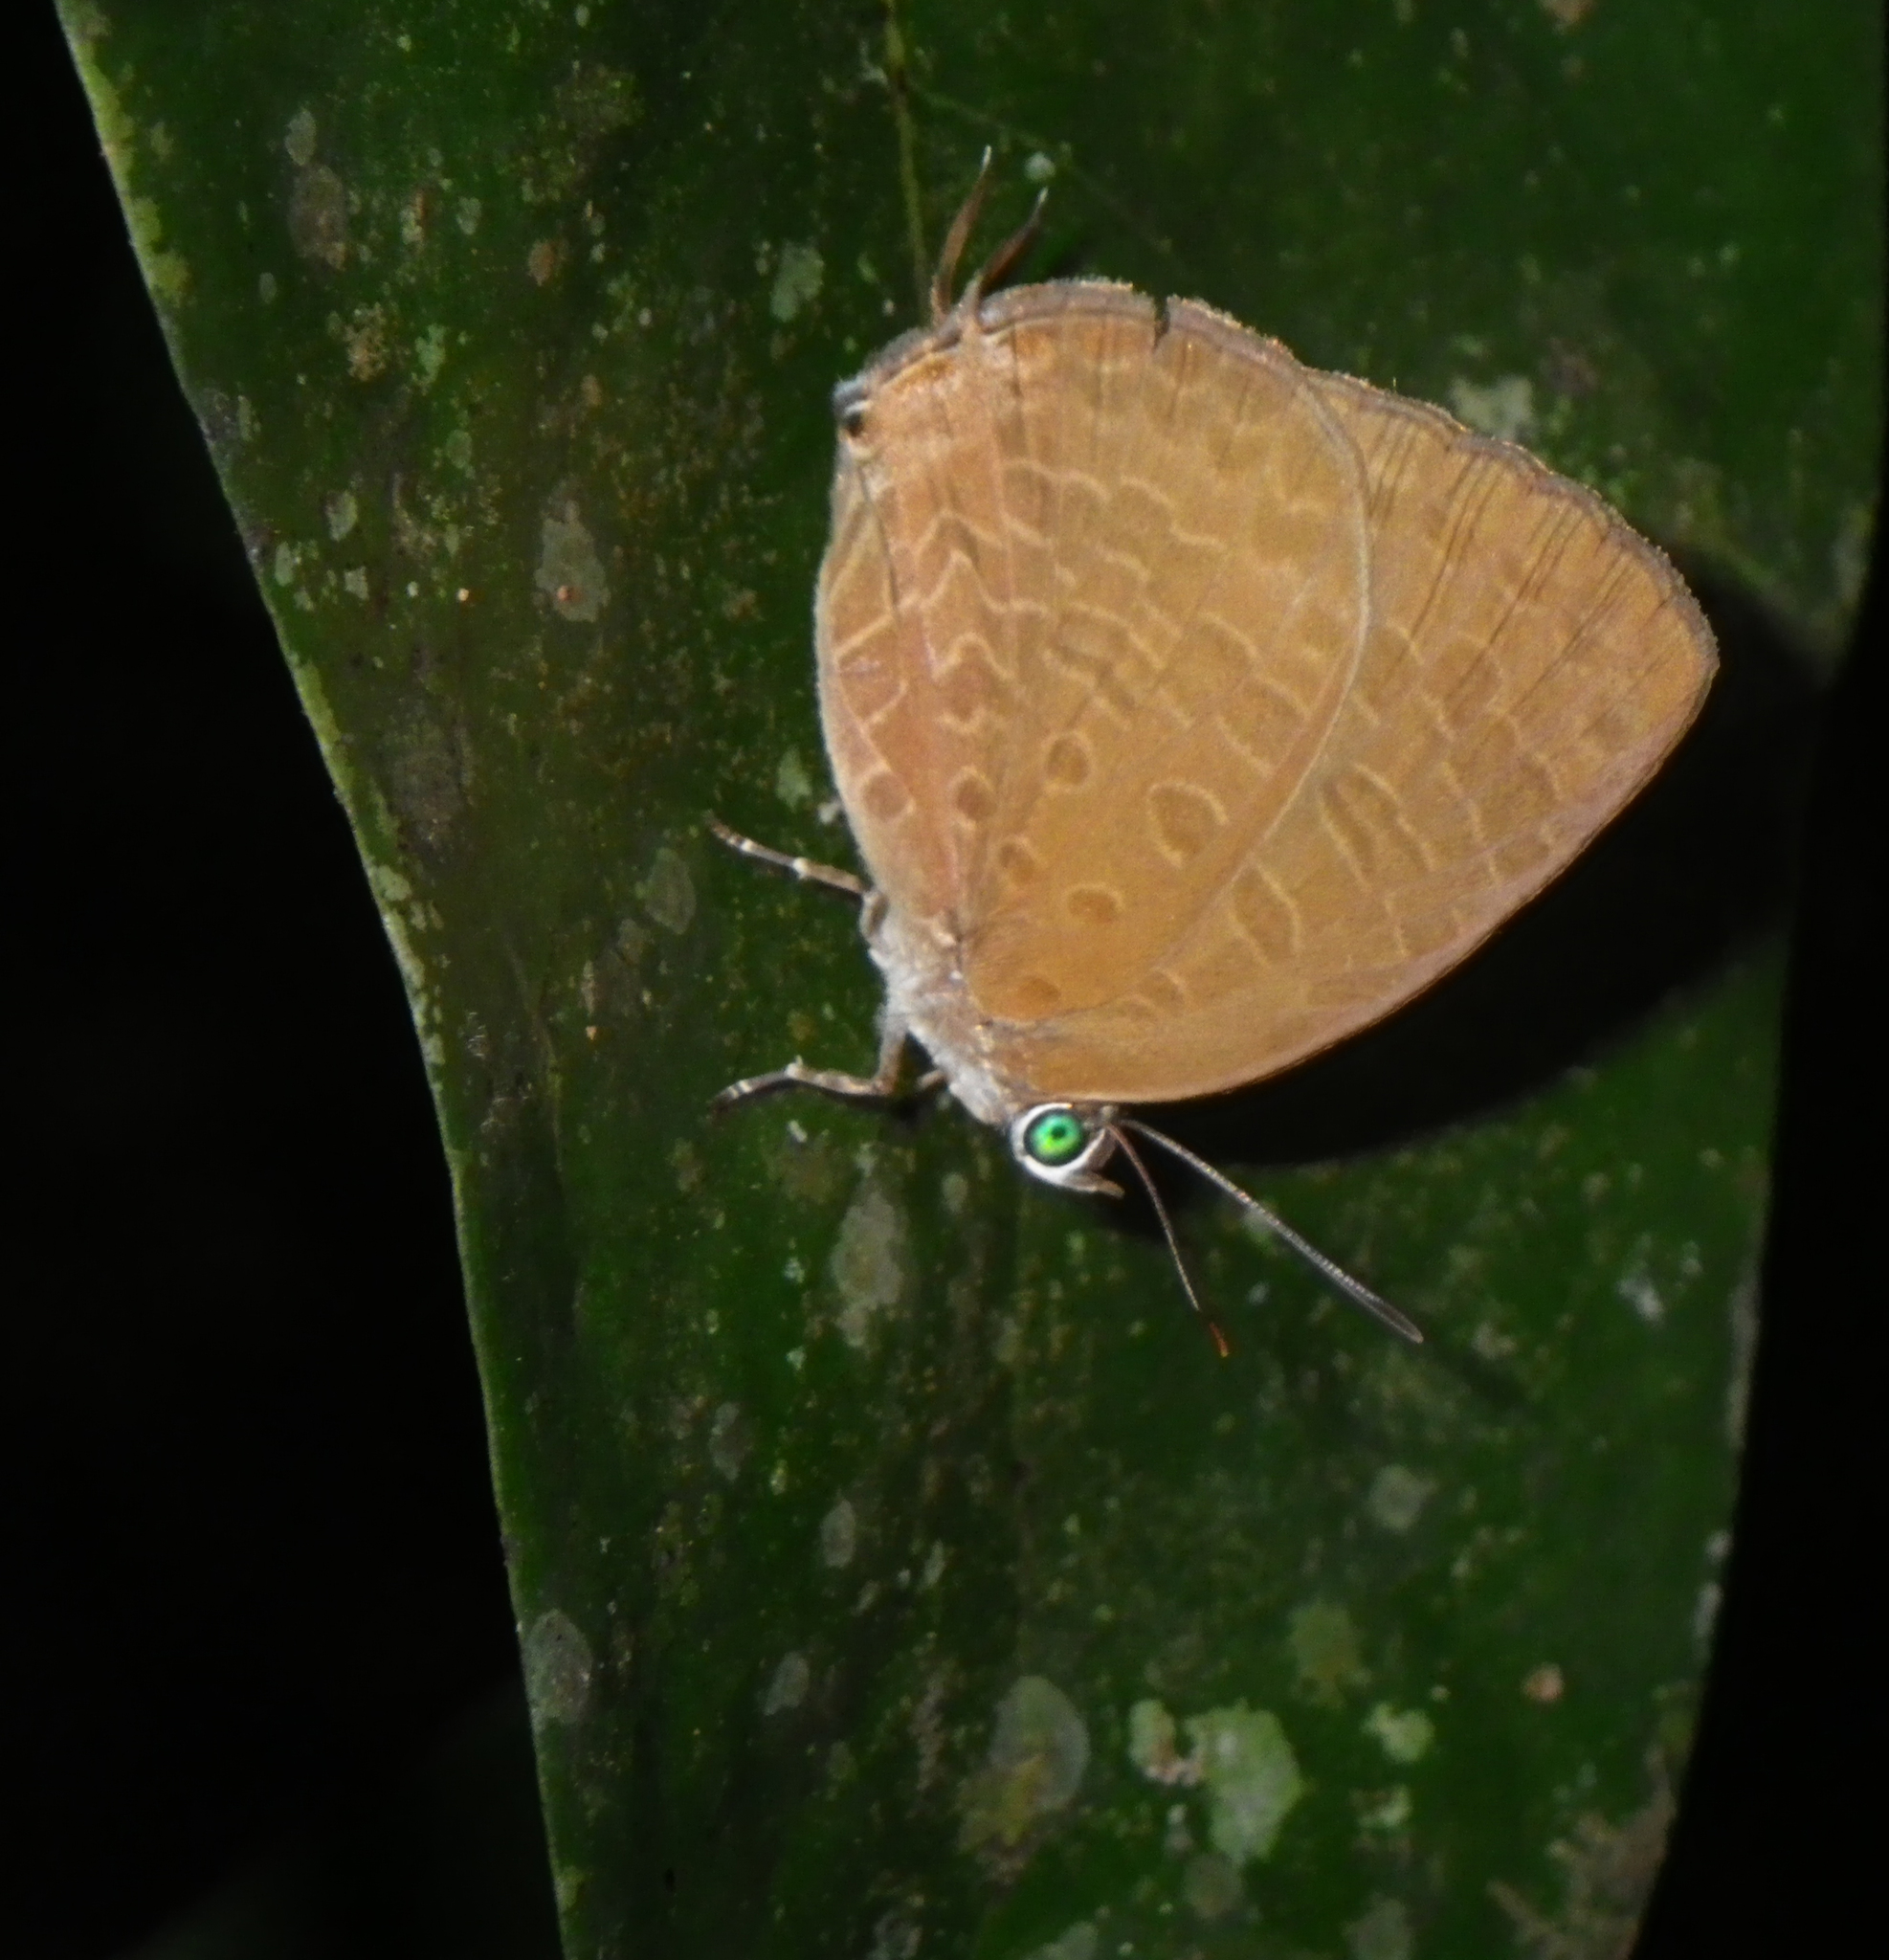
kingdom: Animalia
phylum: Arthropoda
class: Insecta
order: Lepidoptera
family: Lycaenidae
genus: Arhopala
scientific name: Arhopala elopura
